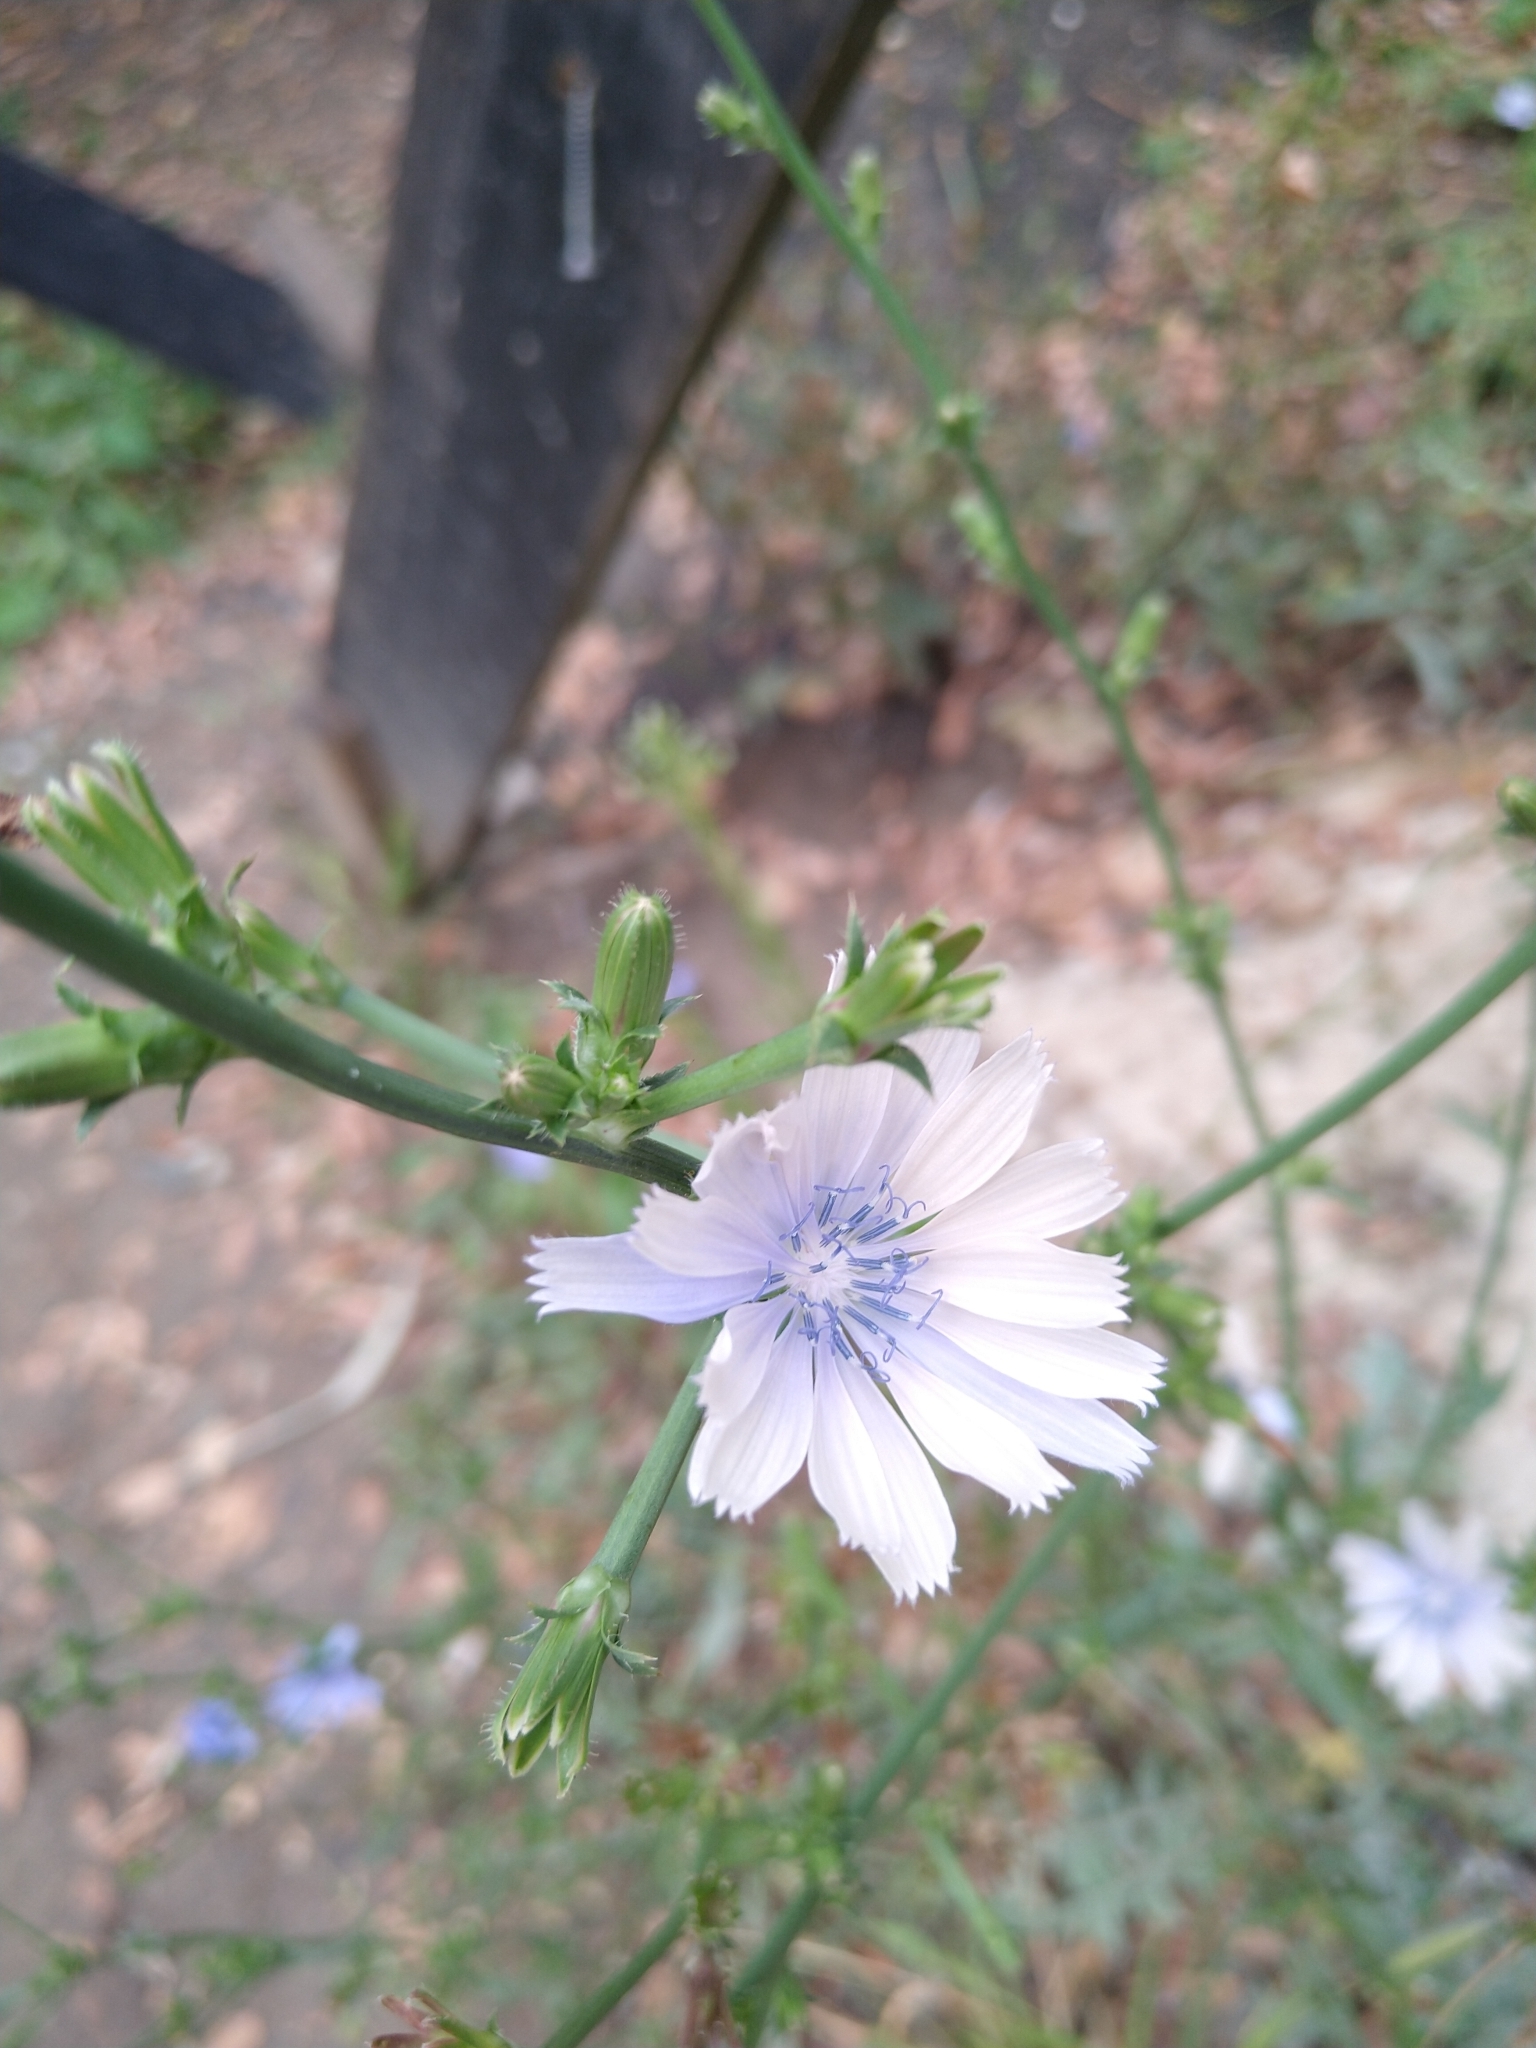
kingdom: Plantae
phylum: Tracheophyta
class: Magnoliopsida
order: Asterales
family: Asteraceae
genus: Cichorium
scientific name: Cichorium intybus
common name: Chicory
